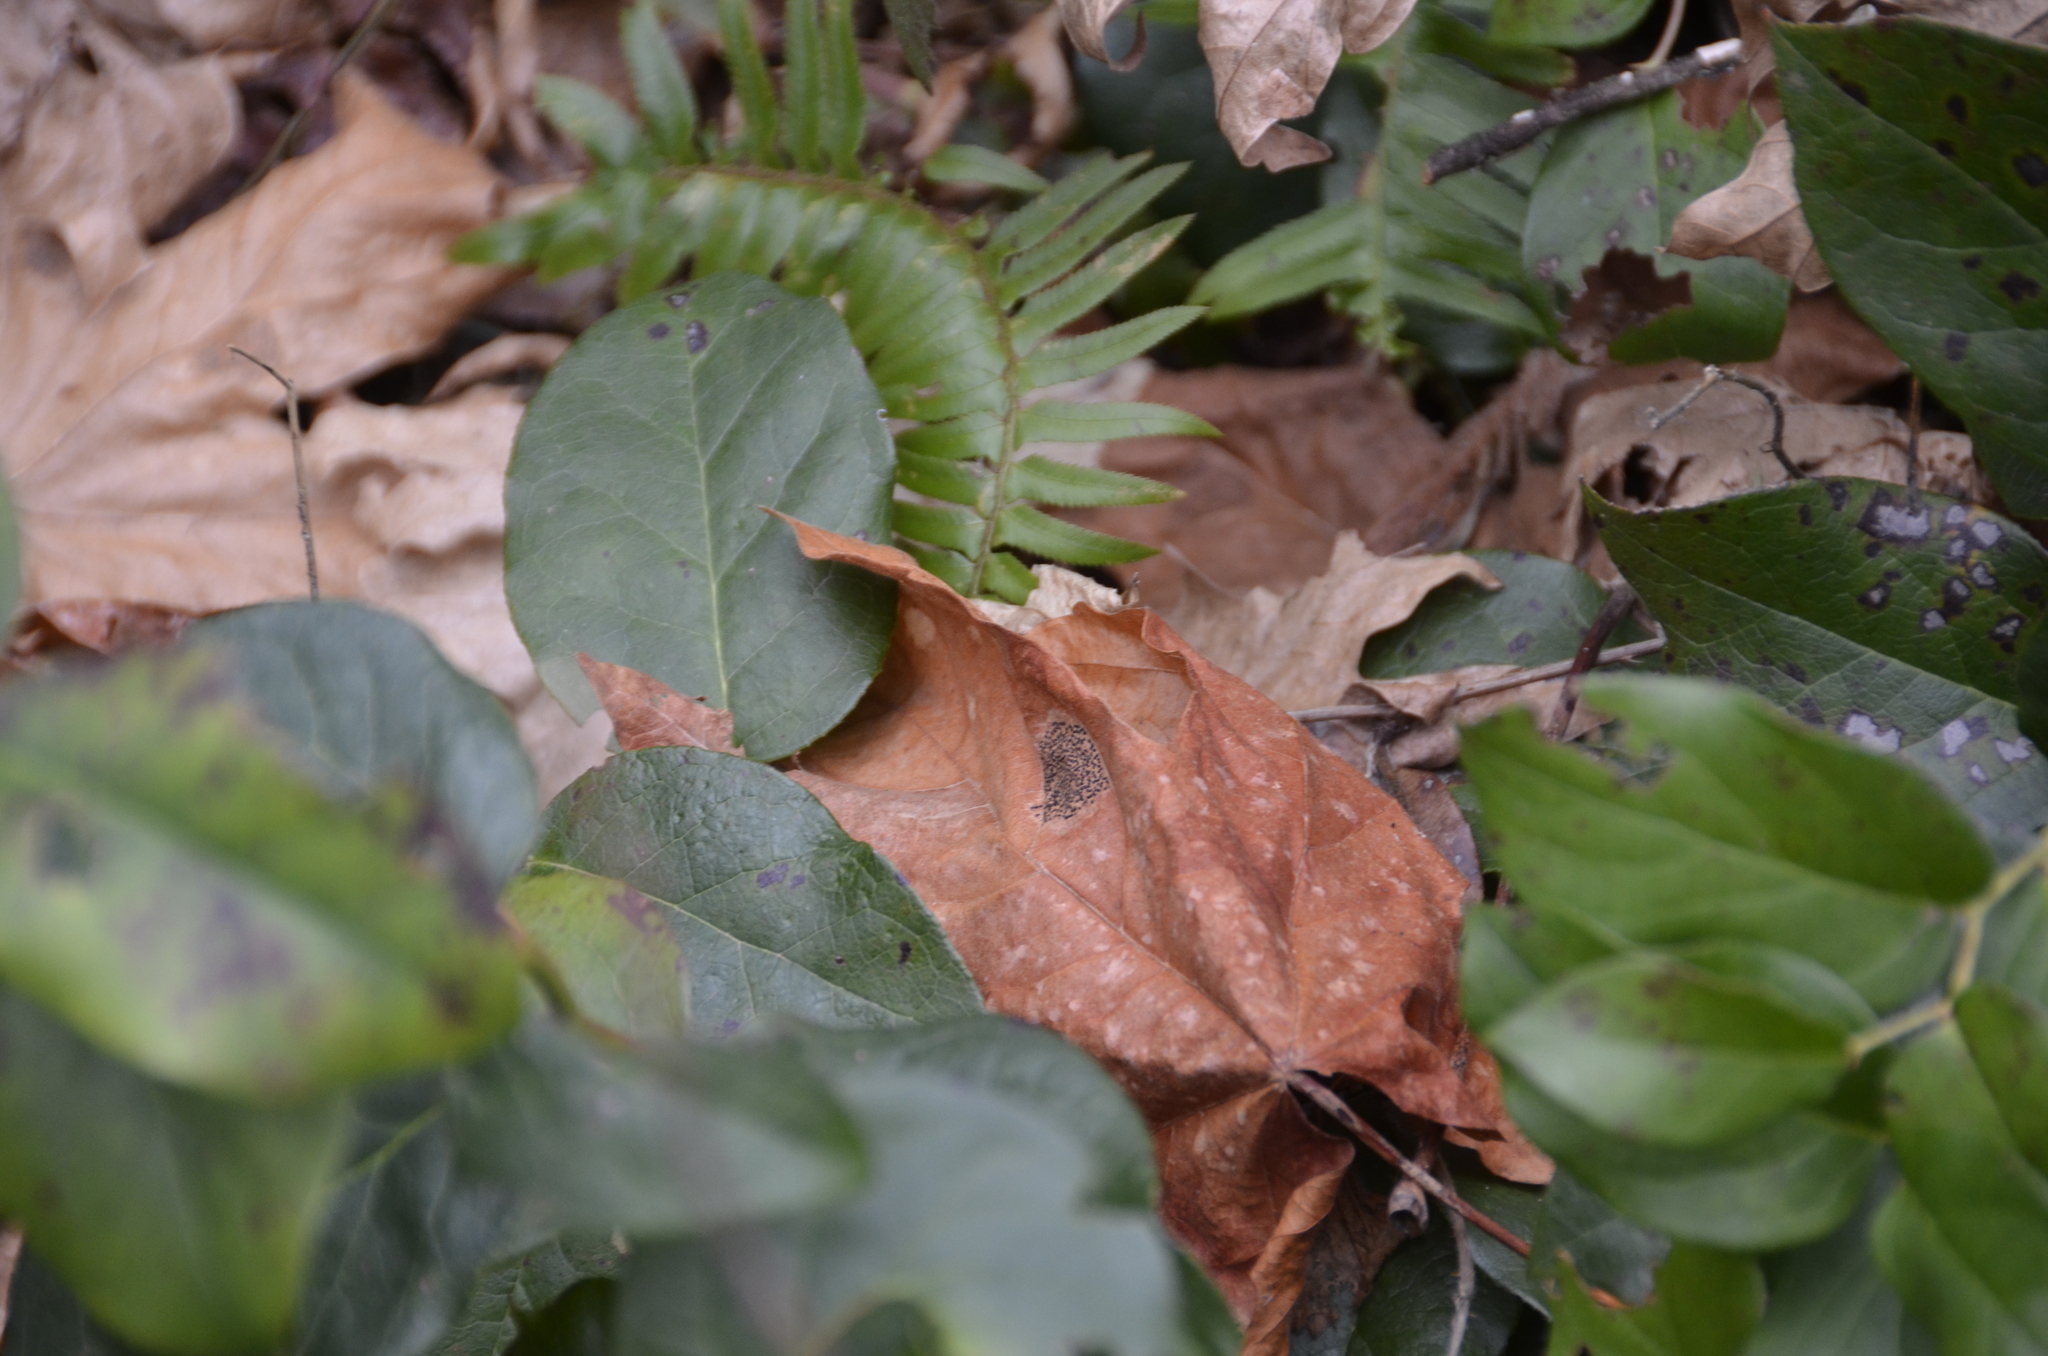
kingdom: Fungi
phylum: Ascomycota
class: Leotiomycetes
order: Rhytismatales
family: Rhytismataceae
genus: Rhytisma
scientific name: Rhytisma punctatum
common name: Speckled tar spot
